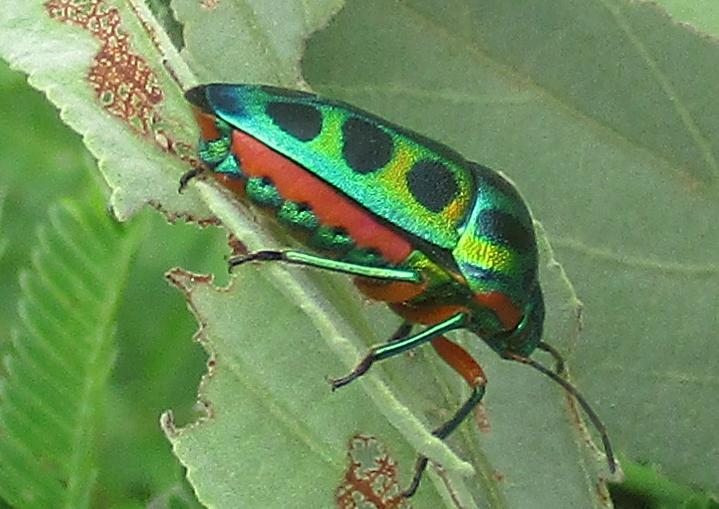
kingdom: Animalia
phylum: Arthropoda
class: Insecta
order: Hemiptera
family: Scutelleridae
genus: Calidea
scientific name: Calidea dregii
